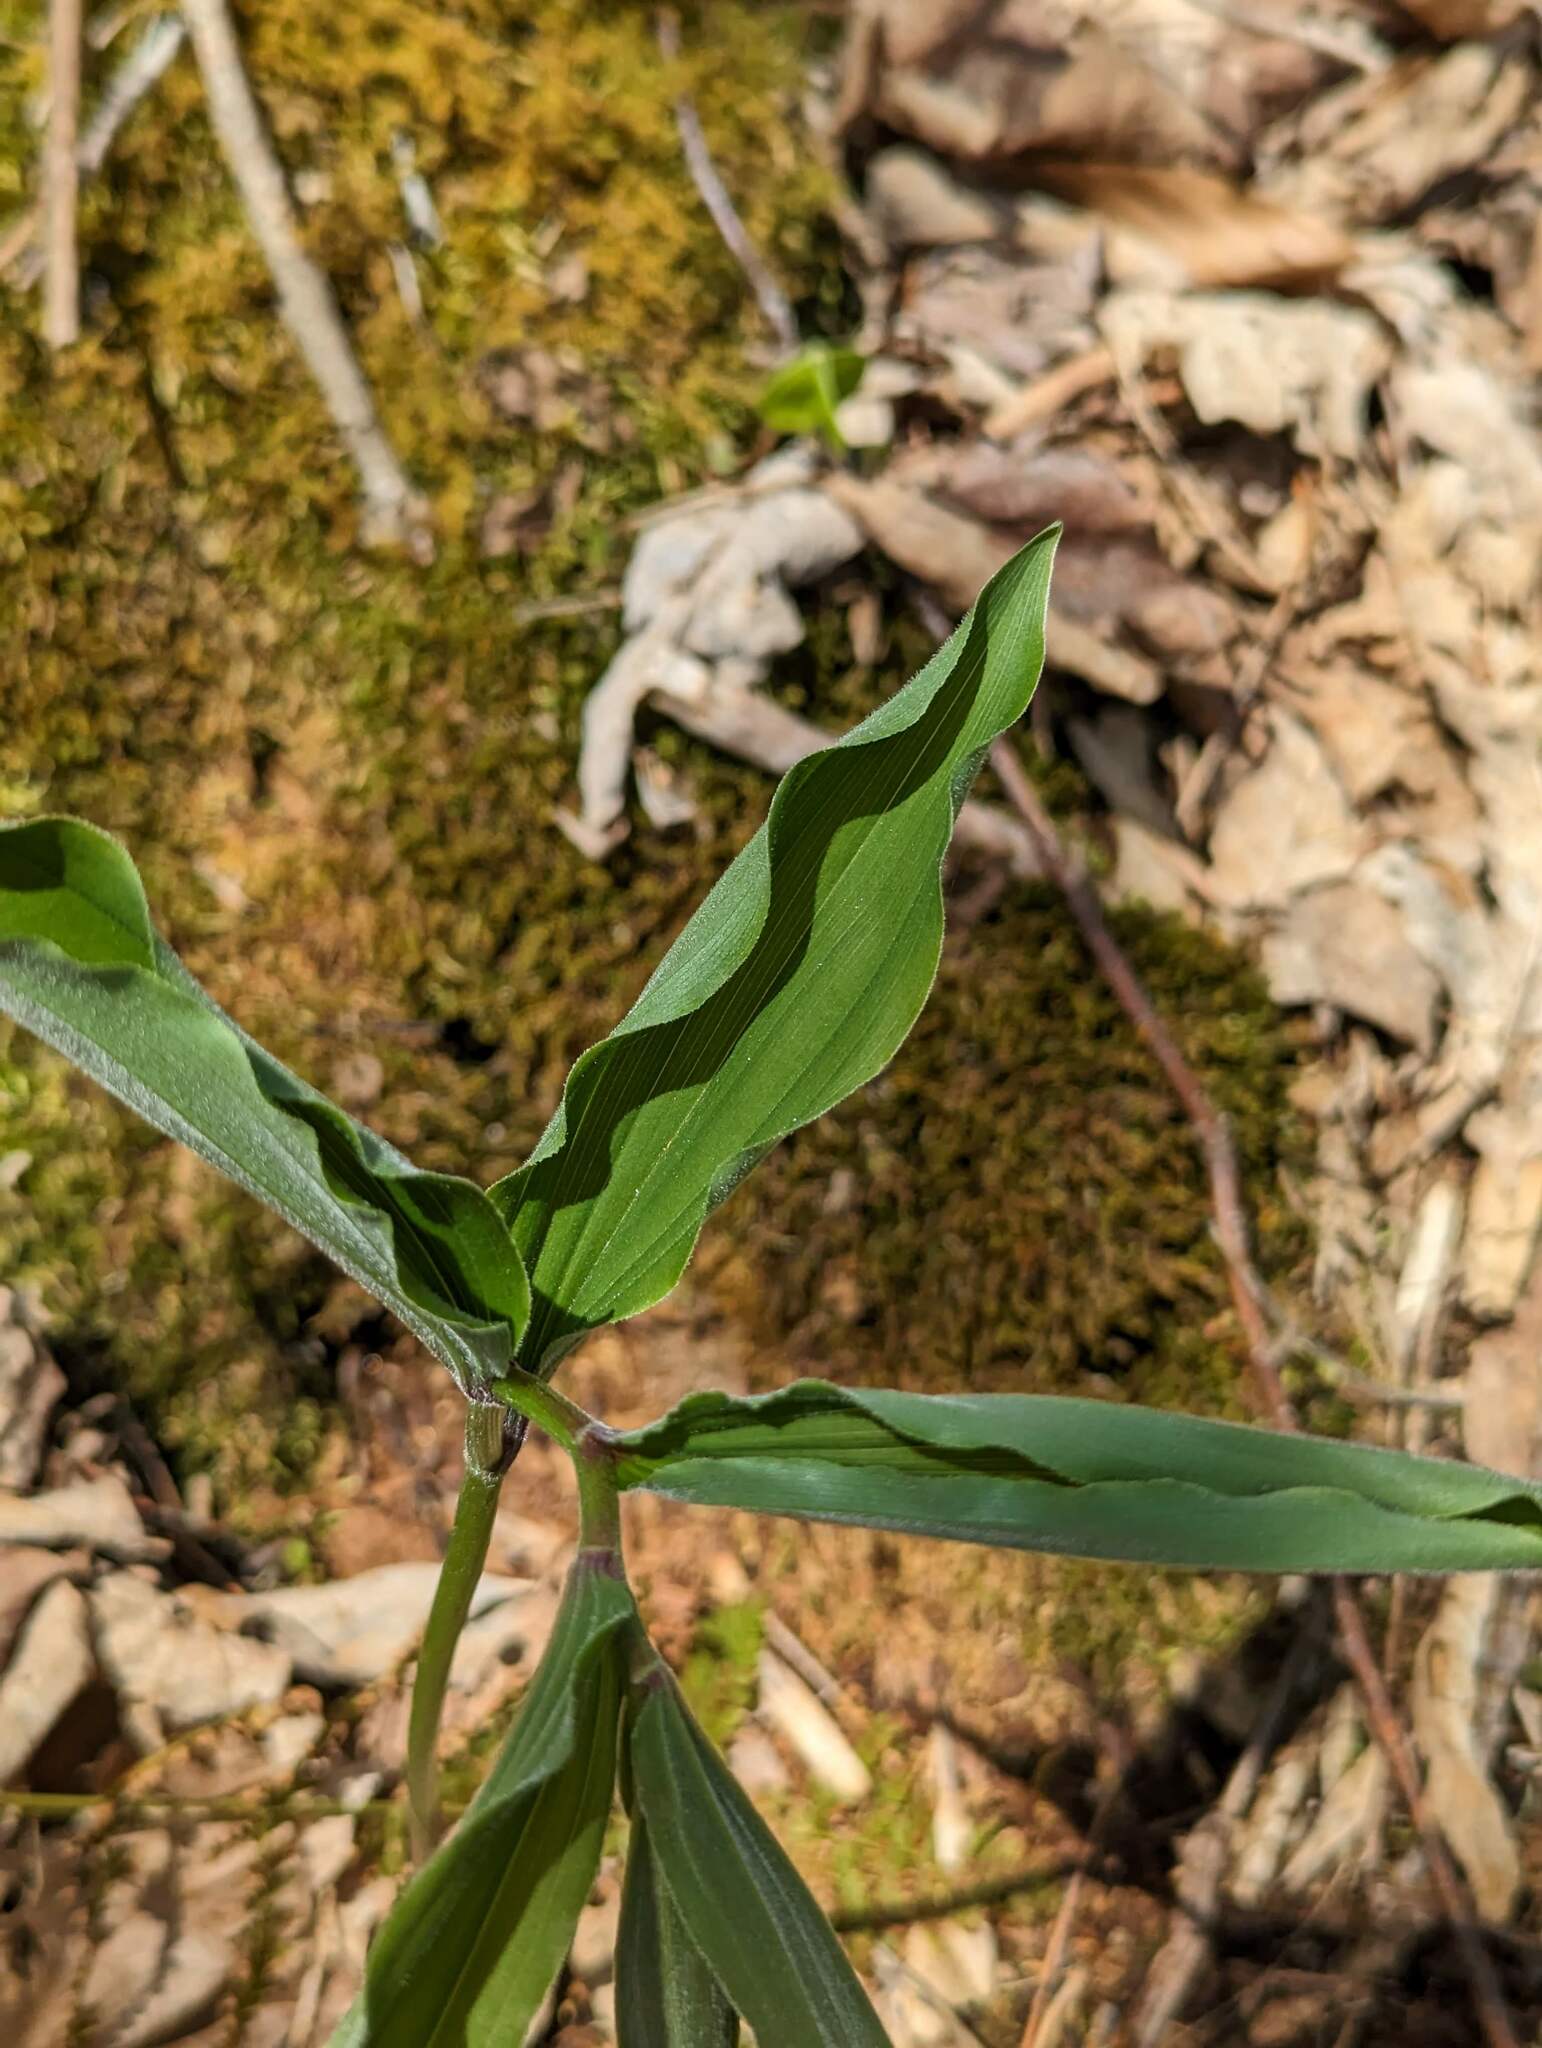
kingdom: Plantae
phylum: Tracheophyta
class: Liliopsida
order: Asparagales
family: Asparagaceae
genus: Maianthemum
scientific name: Maianthemum racemosum
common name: False spikenard
